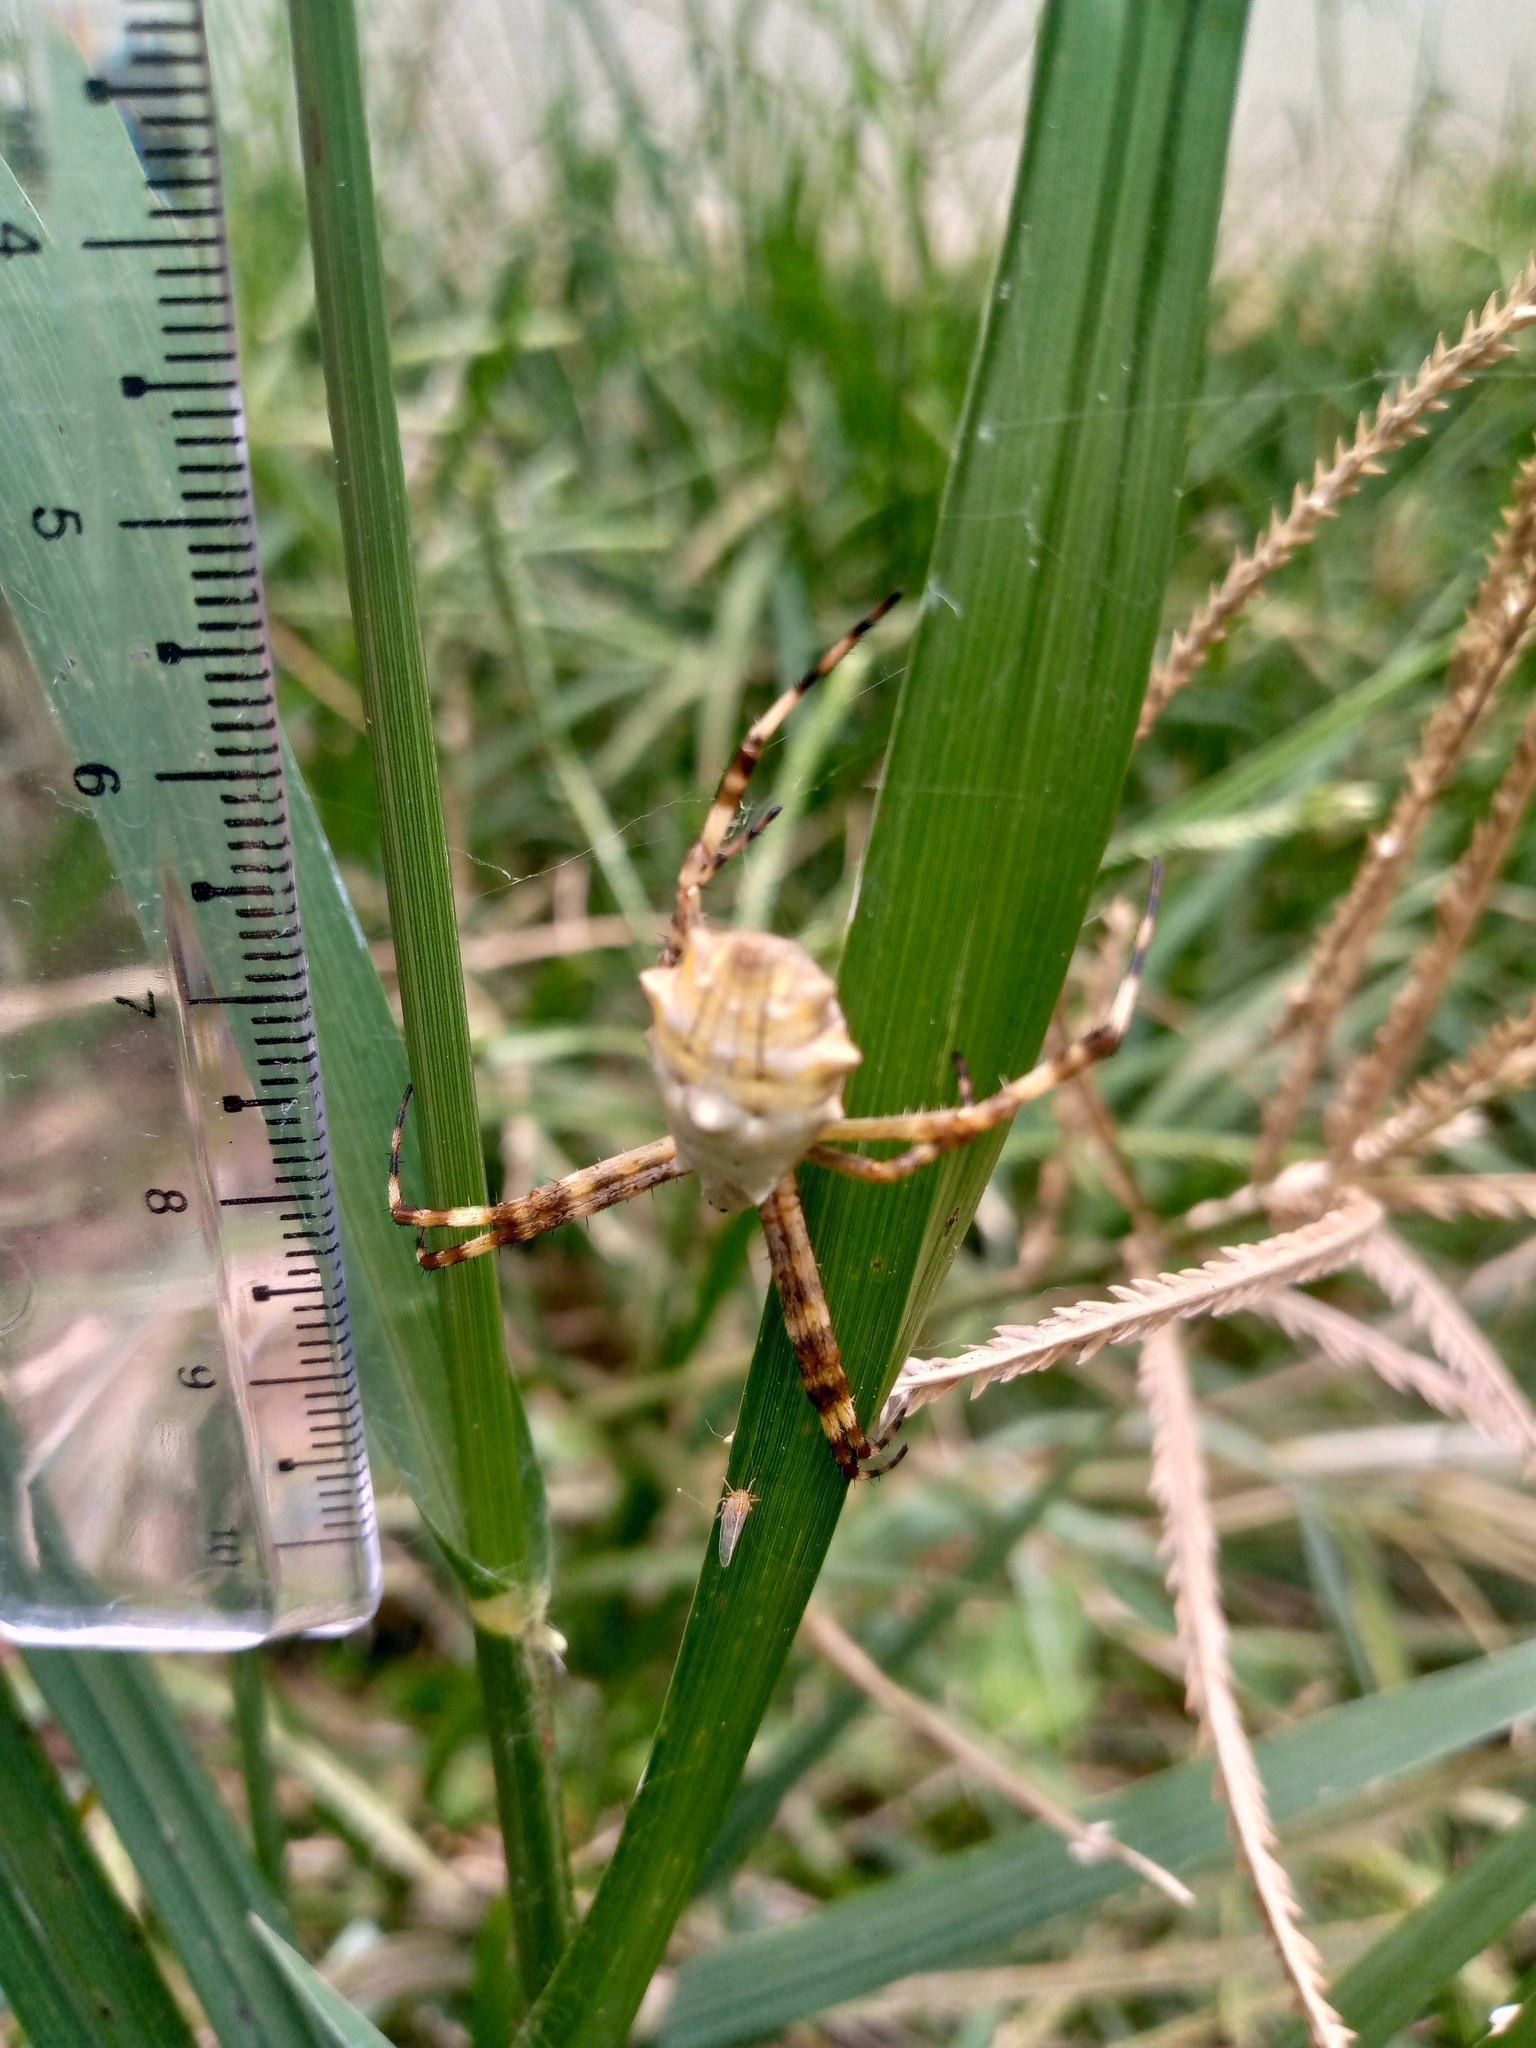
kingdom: Animalia
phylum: Arthropoda
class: Arachnida
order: Araneae
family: Araneidae
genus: Argiope
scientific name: Argiope argentata
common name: Orb weavers
